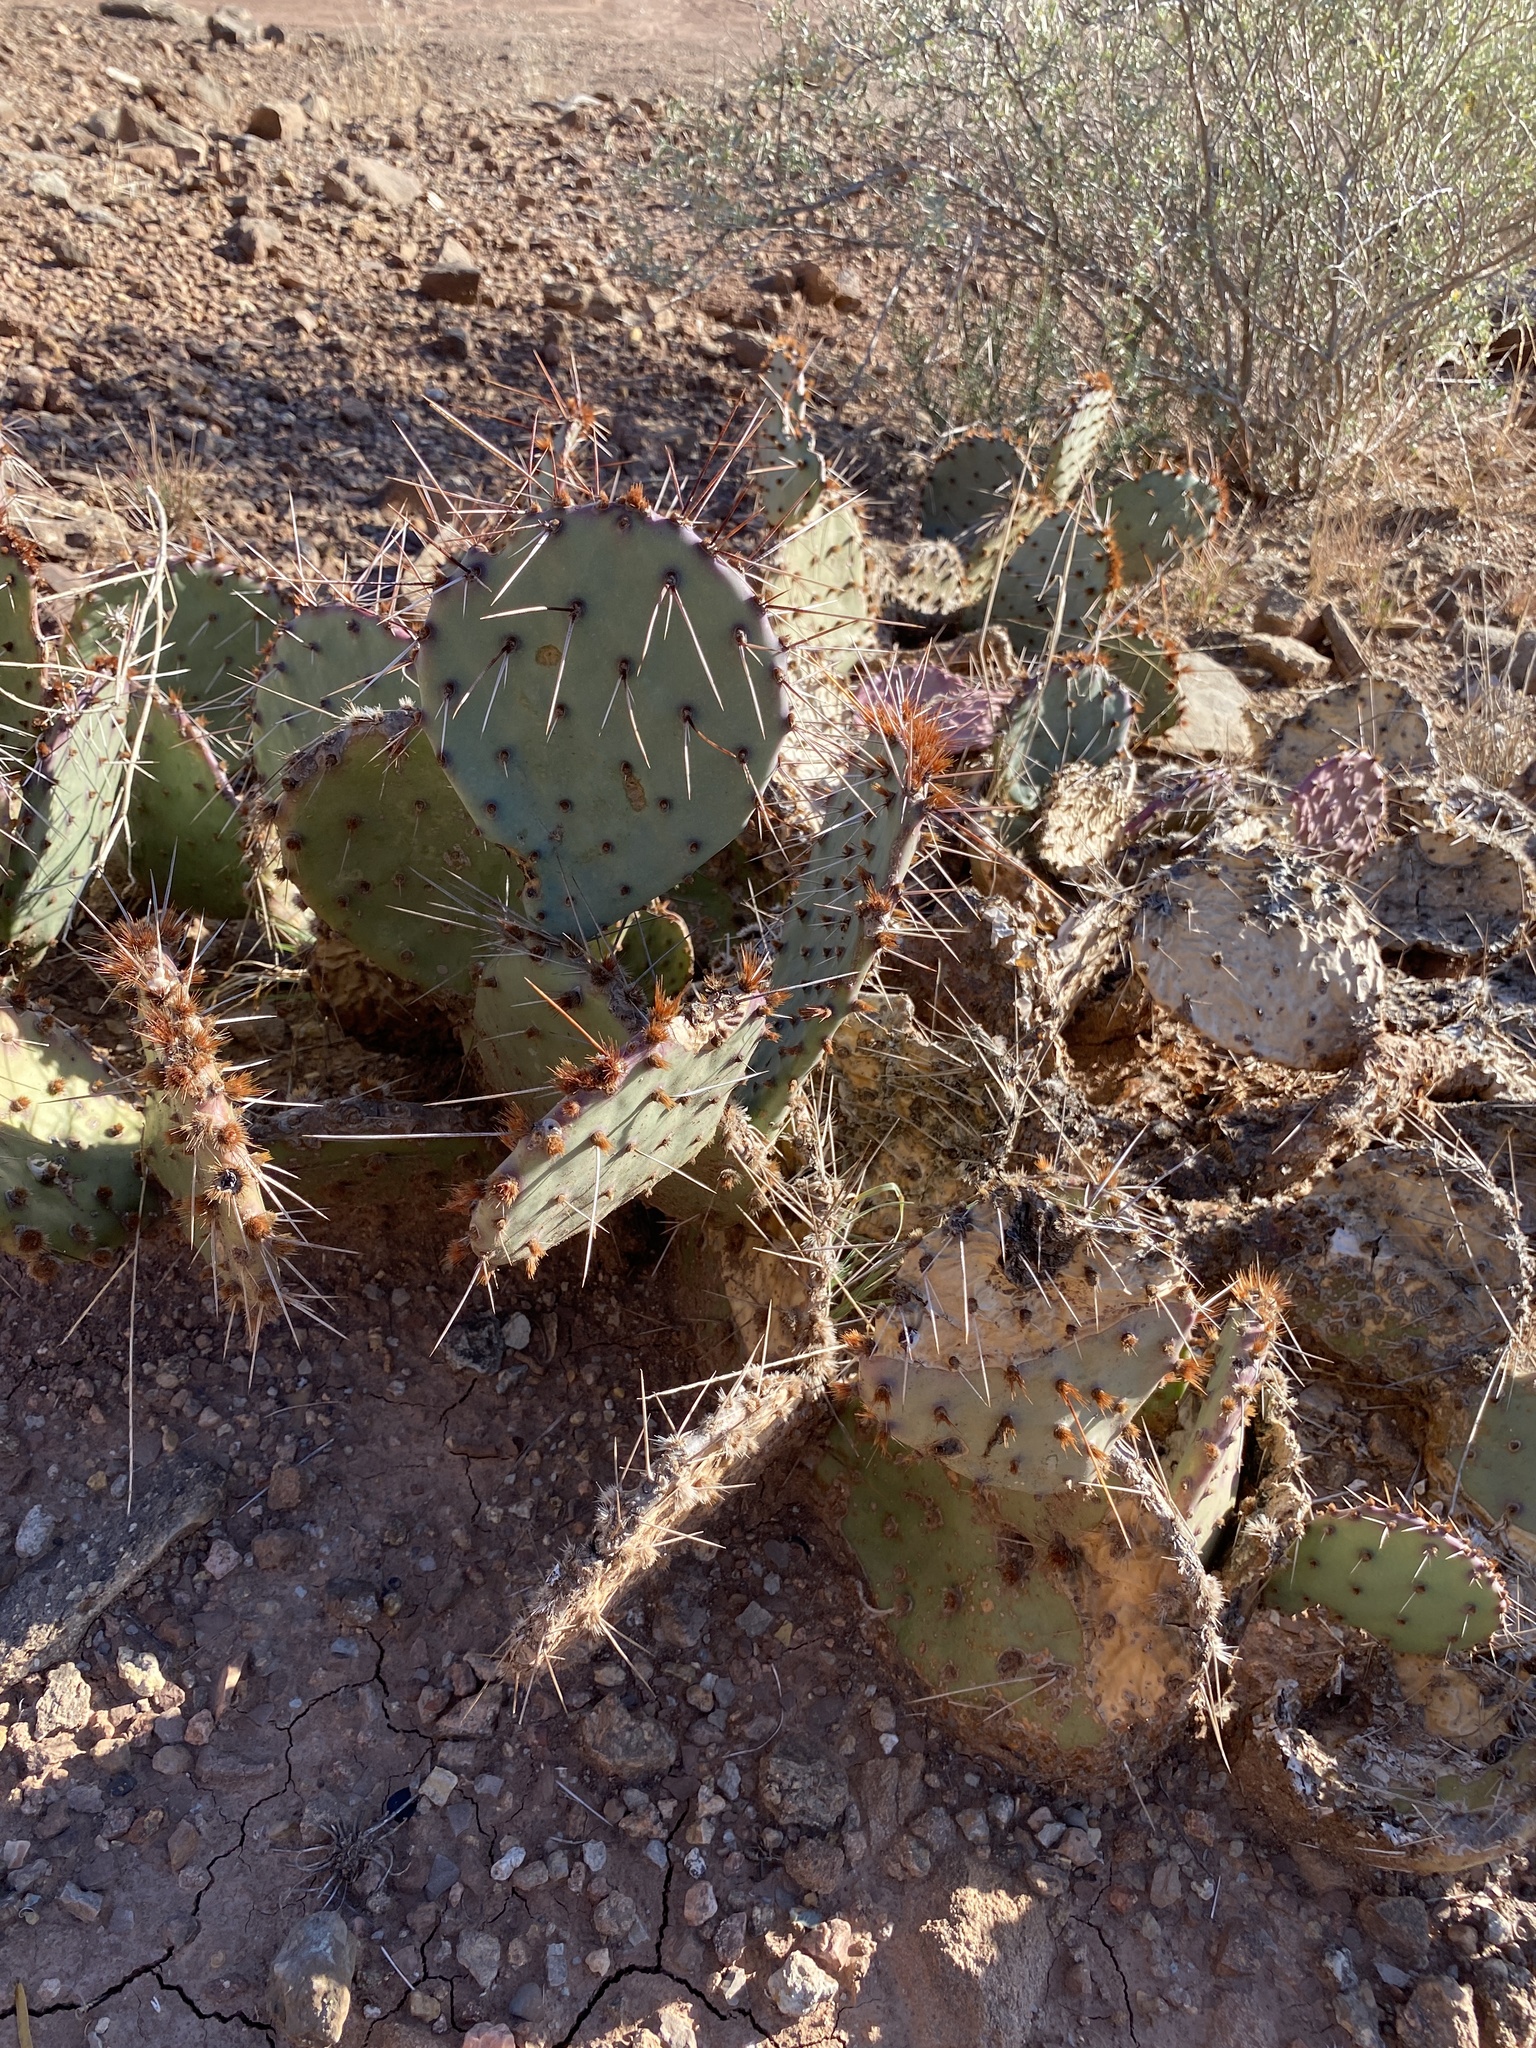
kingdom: Plantae
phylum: Tracheophyta
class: Magnoliopsida
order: Caryophyllales
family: Cactaceae
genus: Opuntia
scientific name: Opuntia phaeacantha
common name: New mexico prickly-pear
